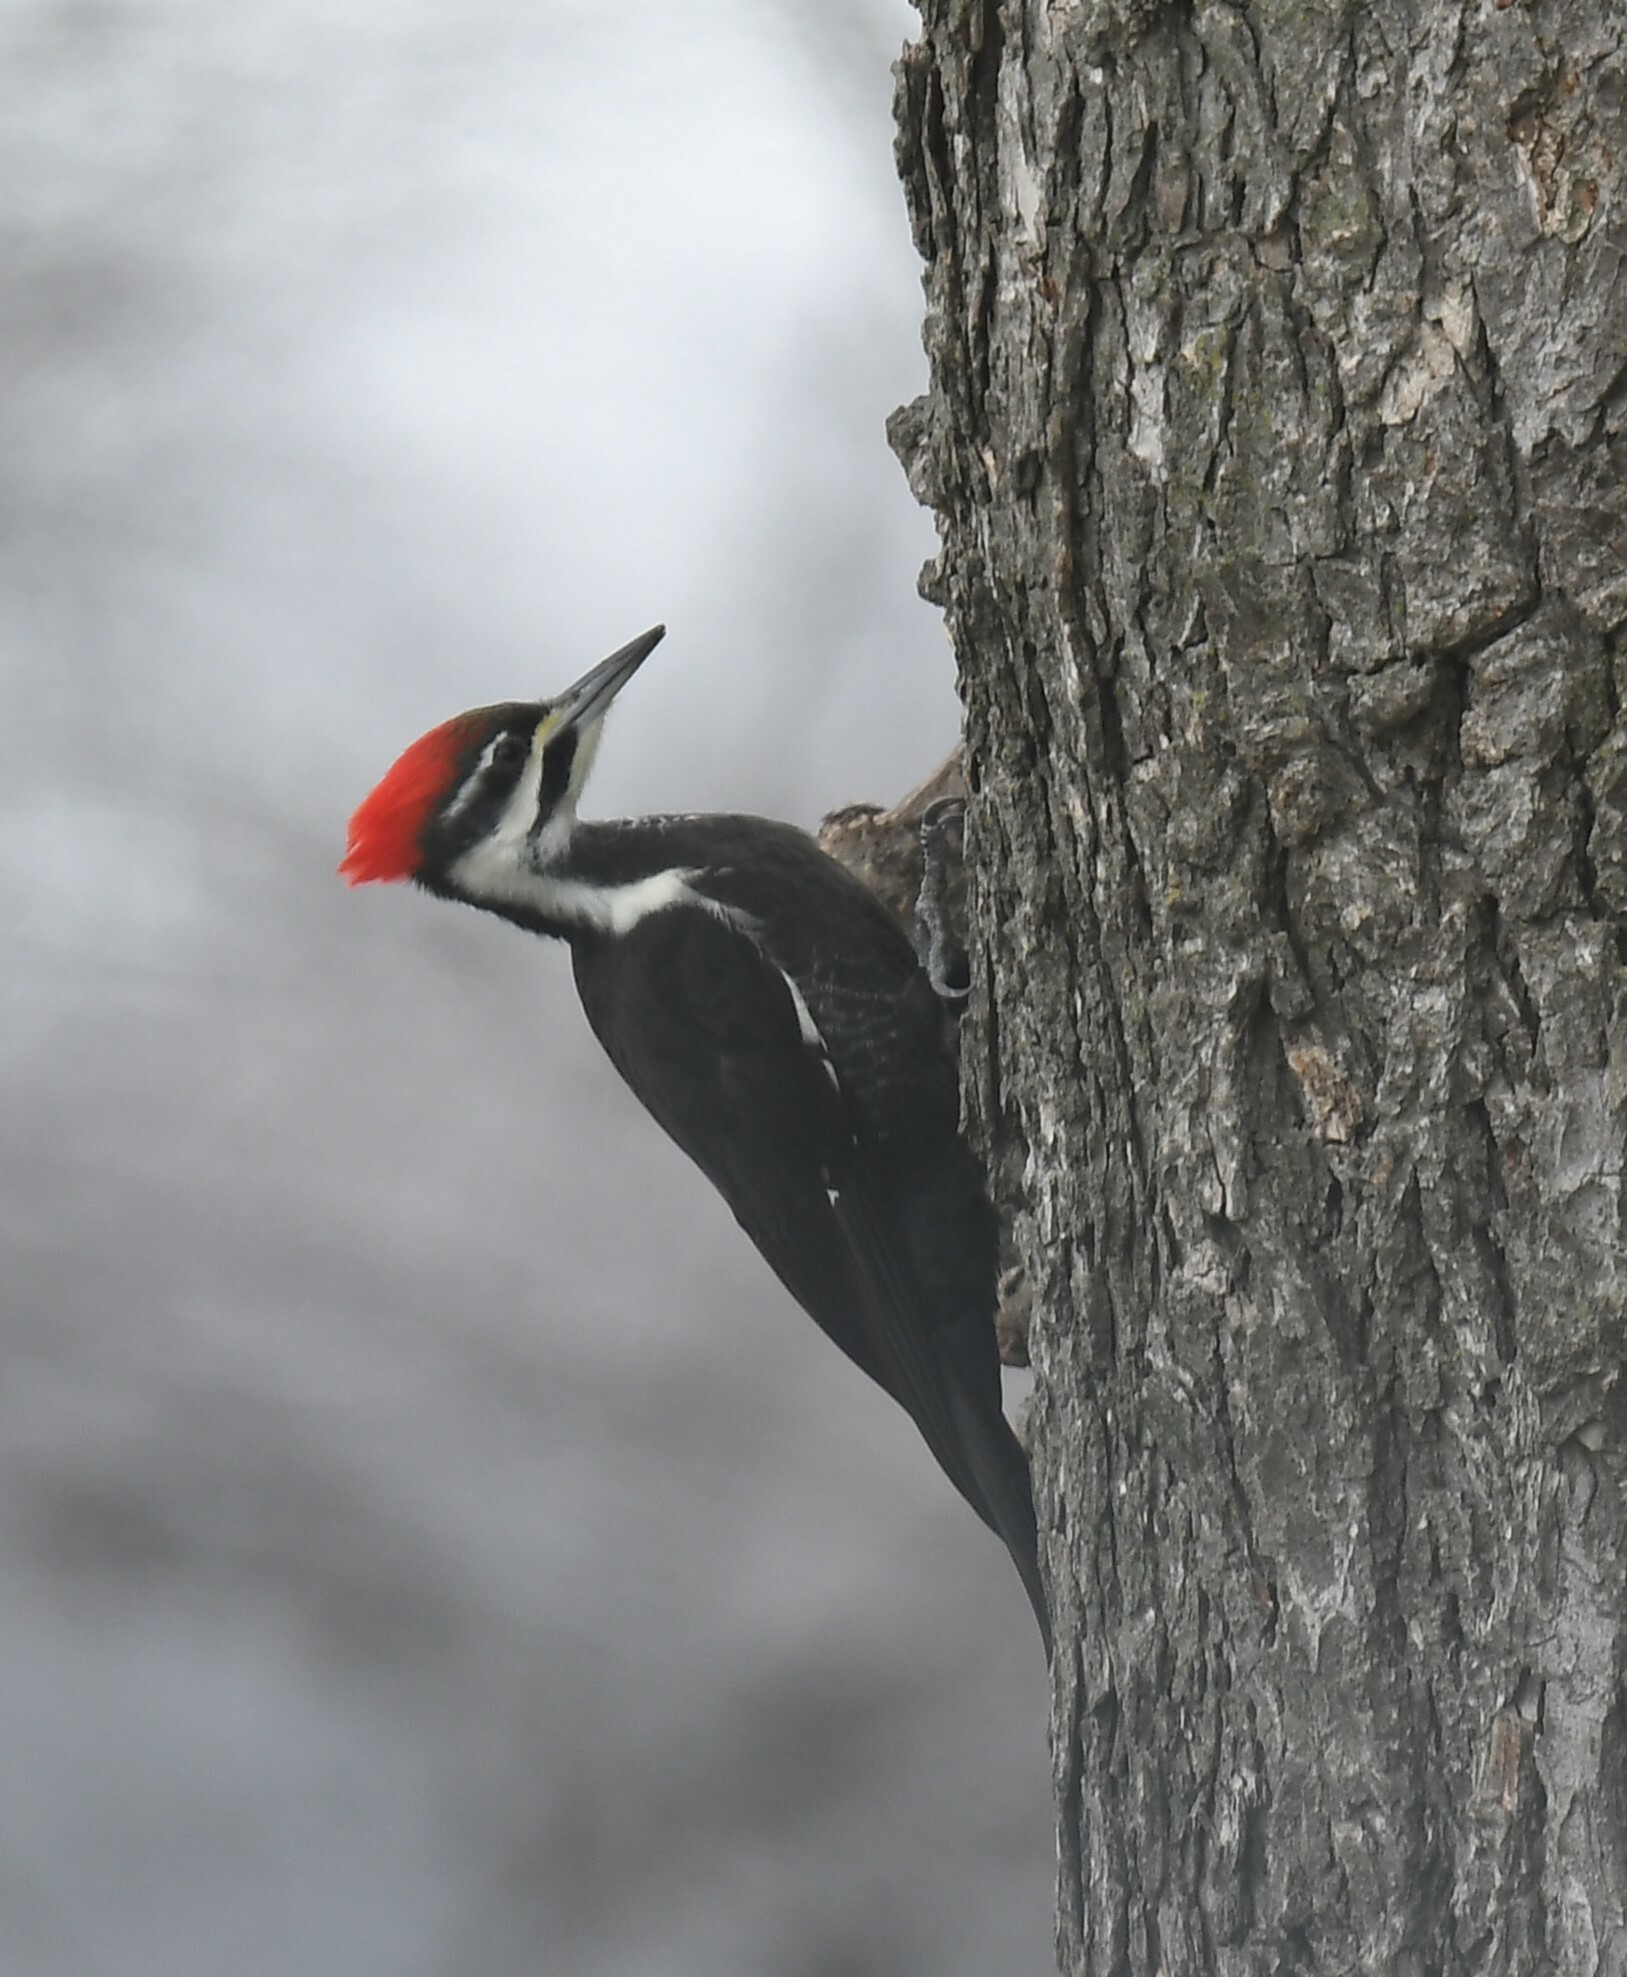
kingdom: Animalia
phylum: Chordata
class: Aves
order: Piciformes
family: Picidae
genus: Dryocopus
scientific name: Dryocopus pileatus
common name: Pileated woodpecker
